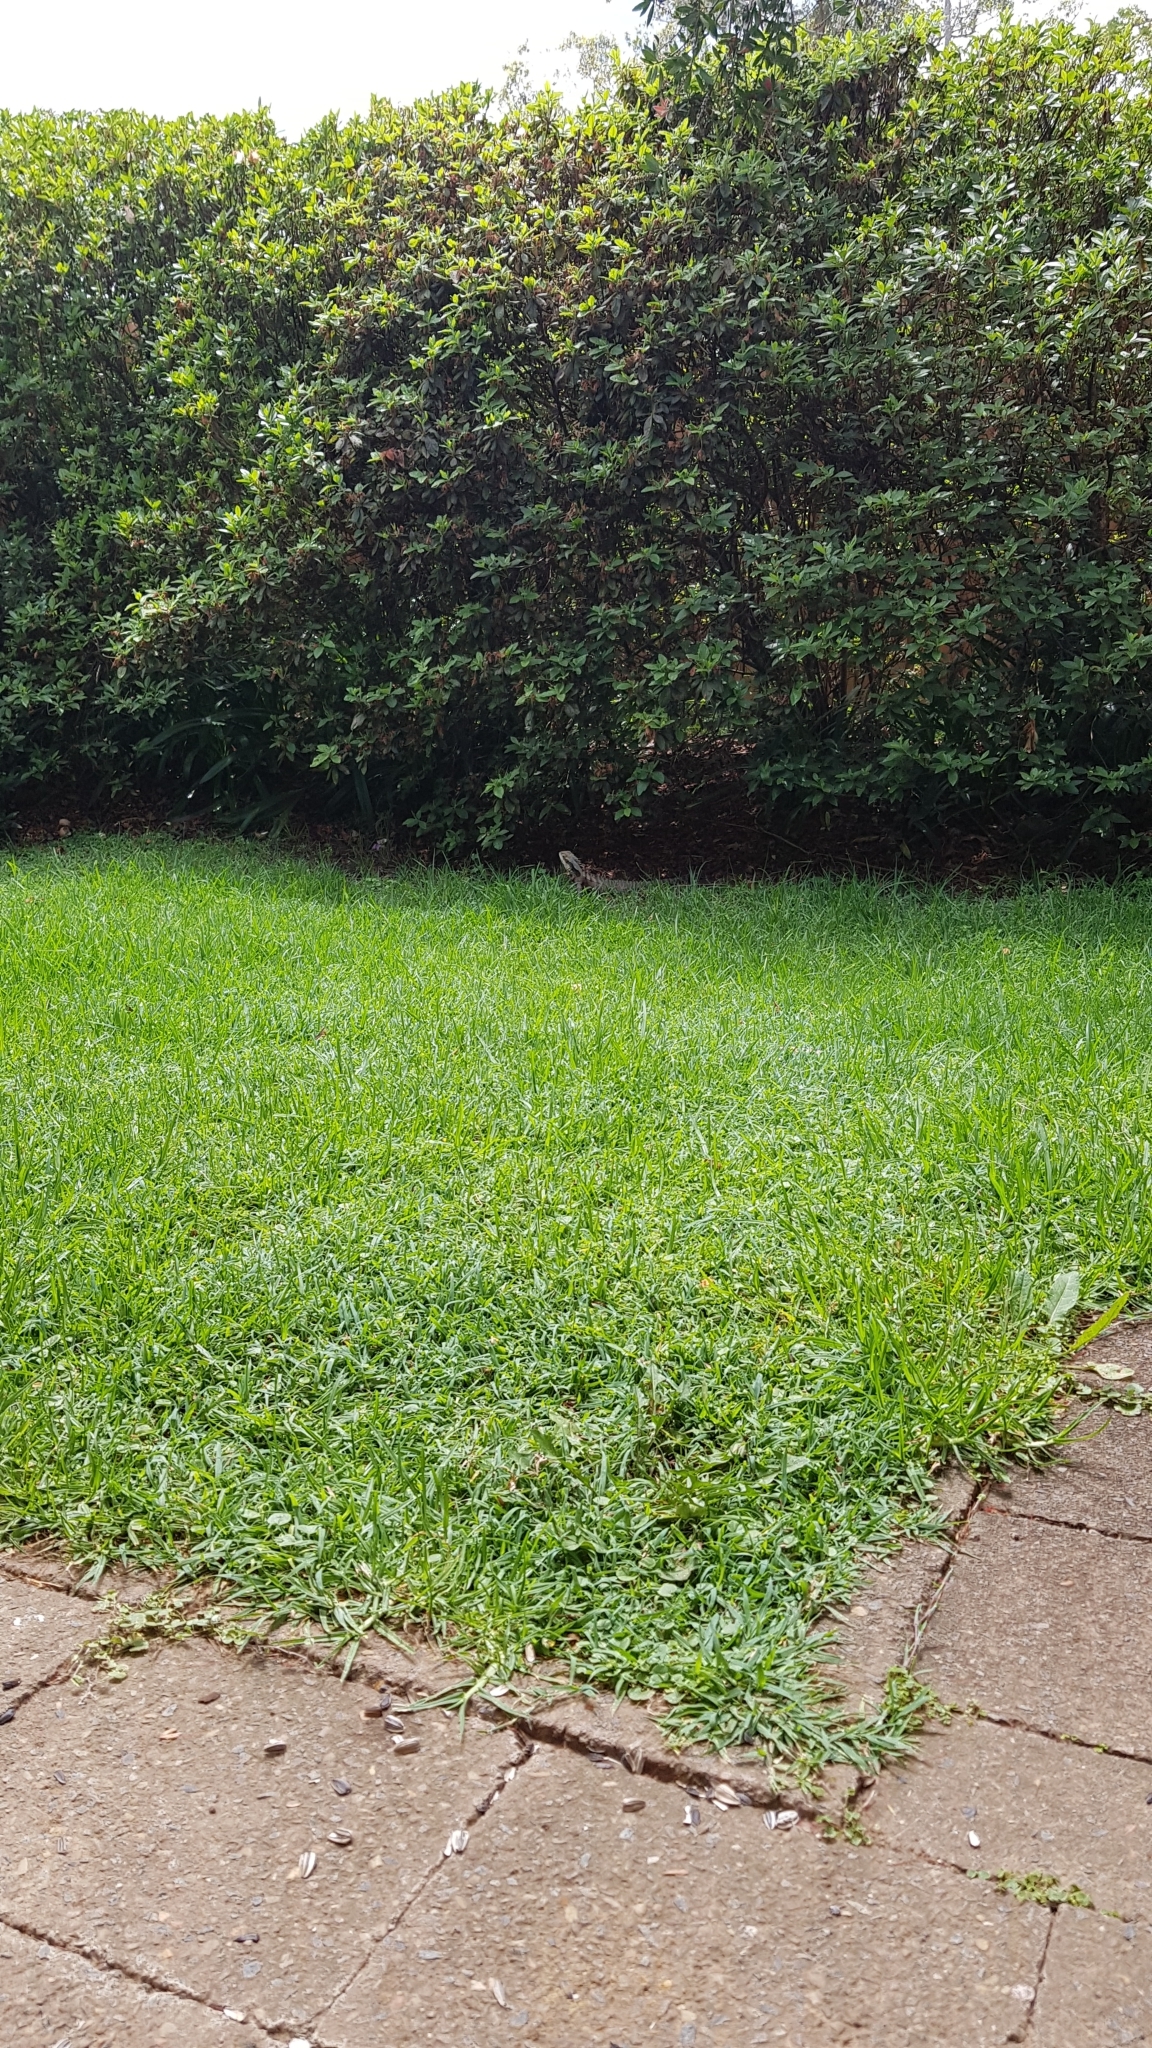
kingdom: Animalia
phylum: Chordata
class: Squamata
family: Agamidae
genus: Intellagama
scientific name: Intellagama lesueurii
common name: Eastern water dragon
